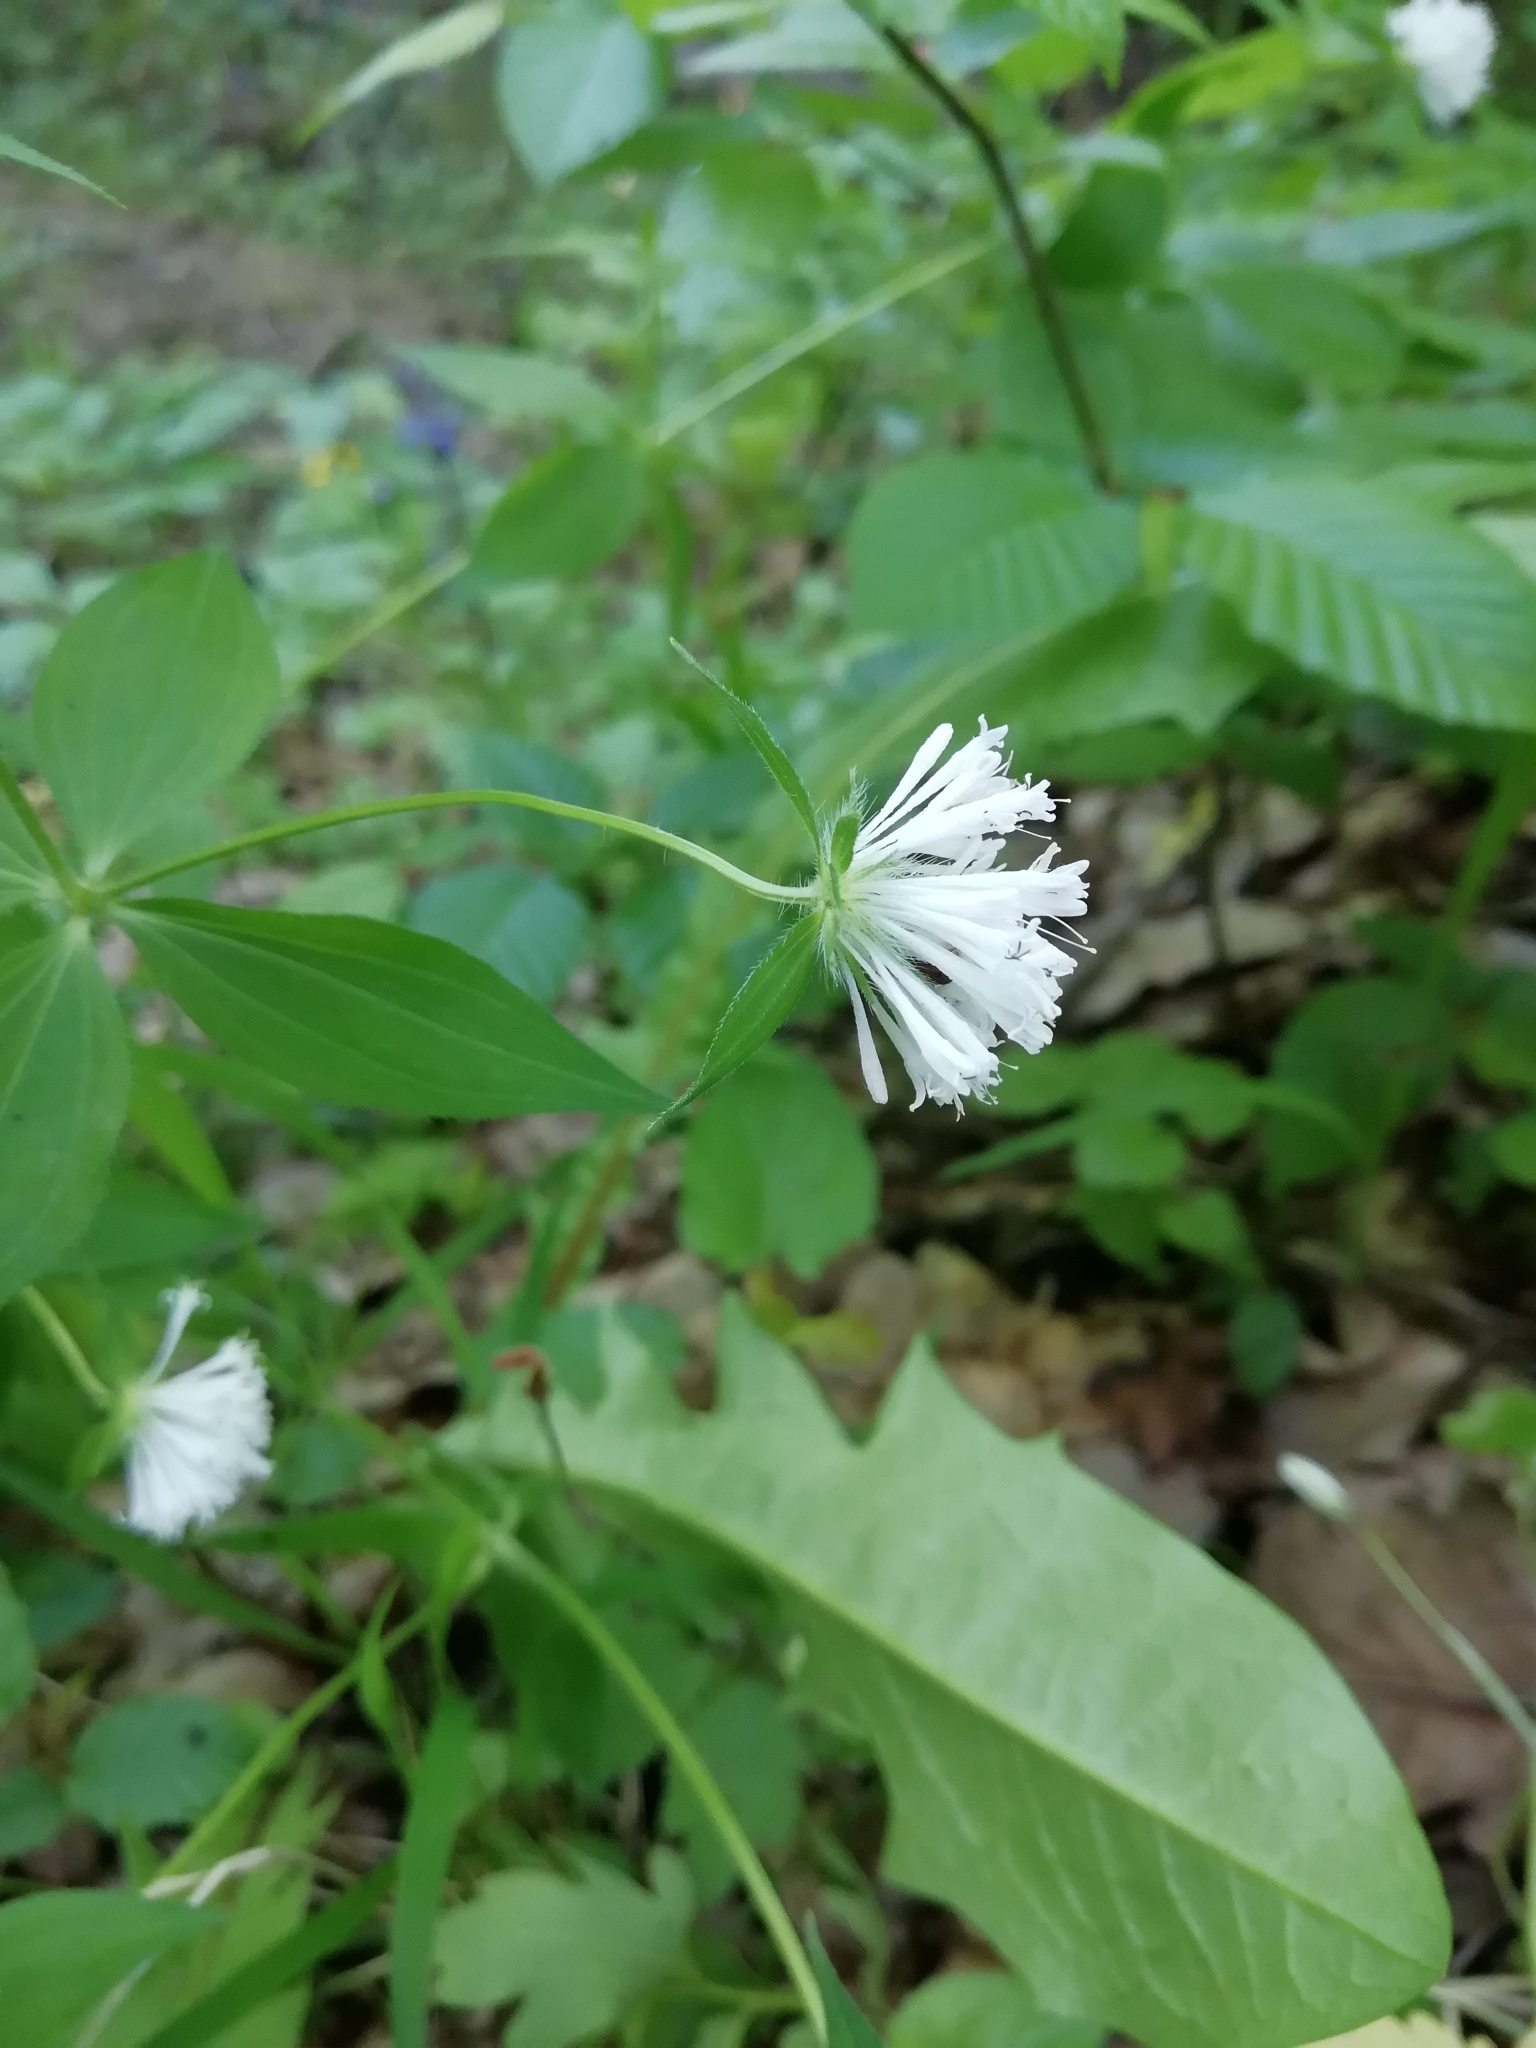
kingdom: Plantae
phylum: Tracheophyta
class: Magnoliopsida
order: Gentianales
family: Rubiaceae
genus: Asperula
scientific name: Asperula taurina
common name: Pink woodruff
